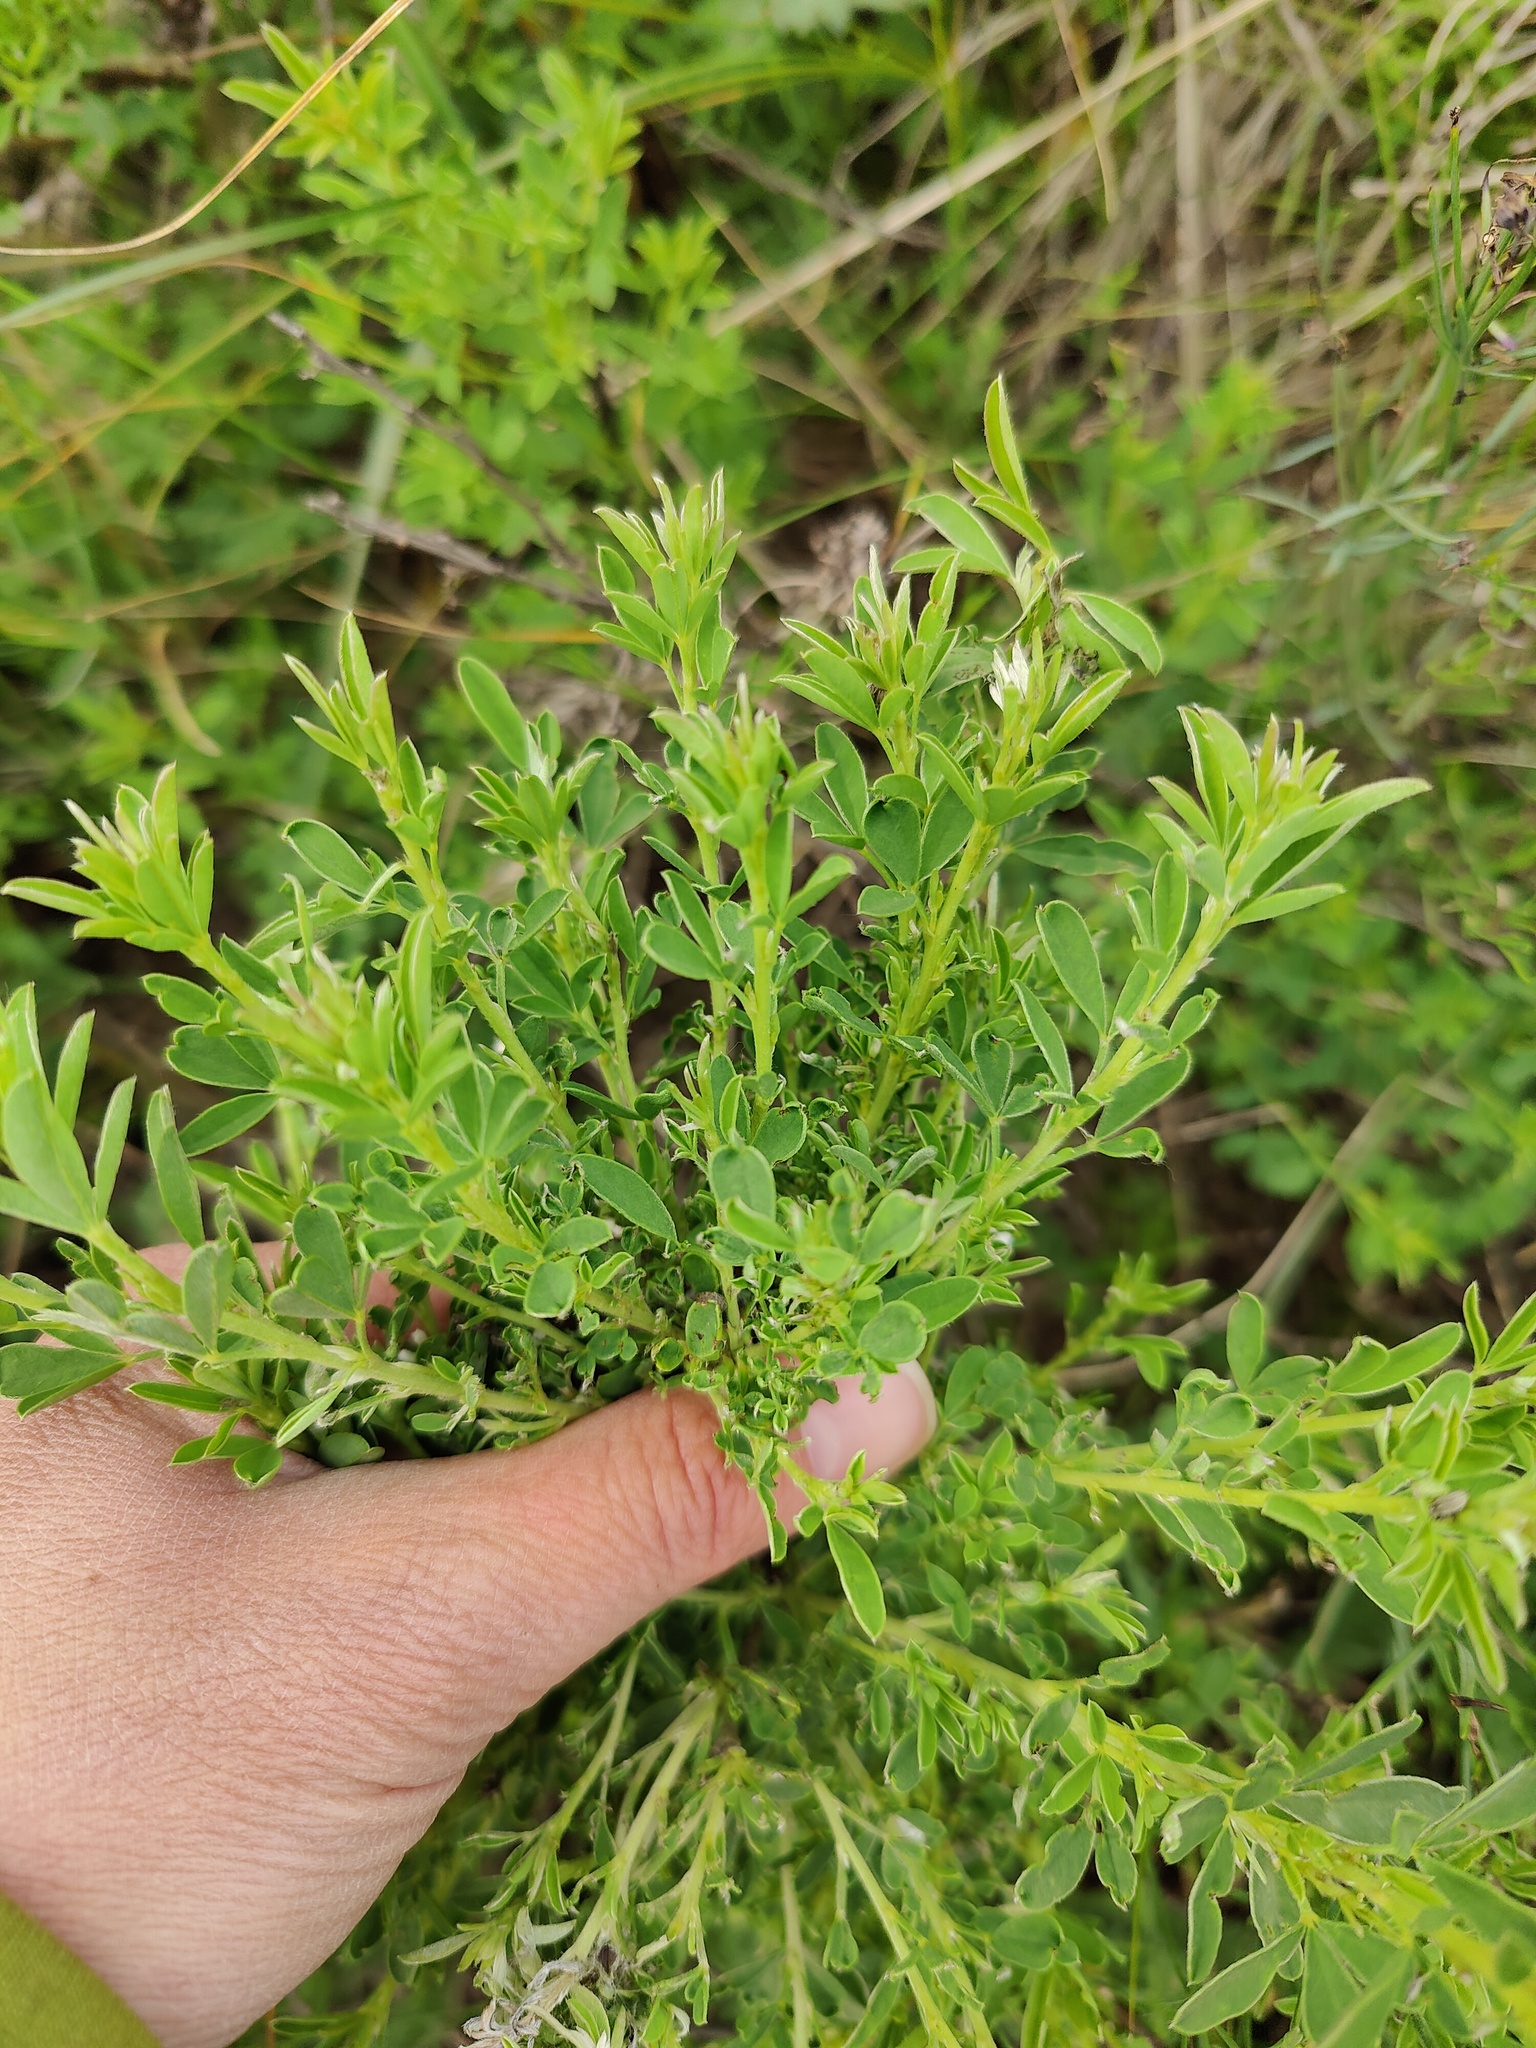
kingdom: Plantae
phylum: Tracheophyta
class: Magnoliopsida
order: Fabales
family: Fabaceae
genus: Chamaecytisus
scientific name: Chamaecytisus ruthenicus
